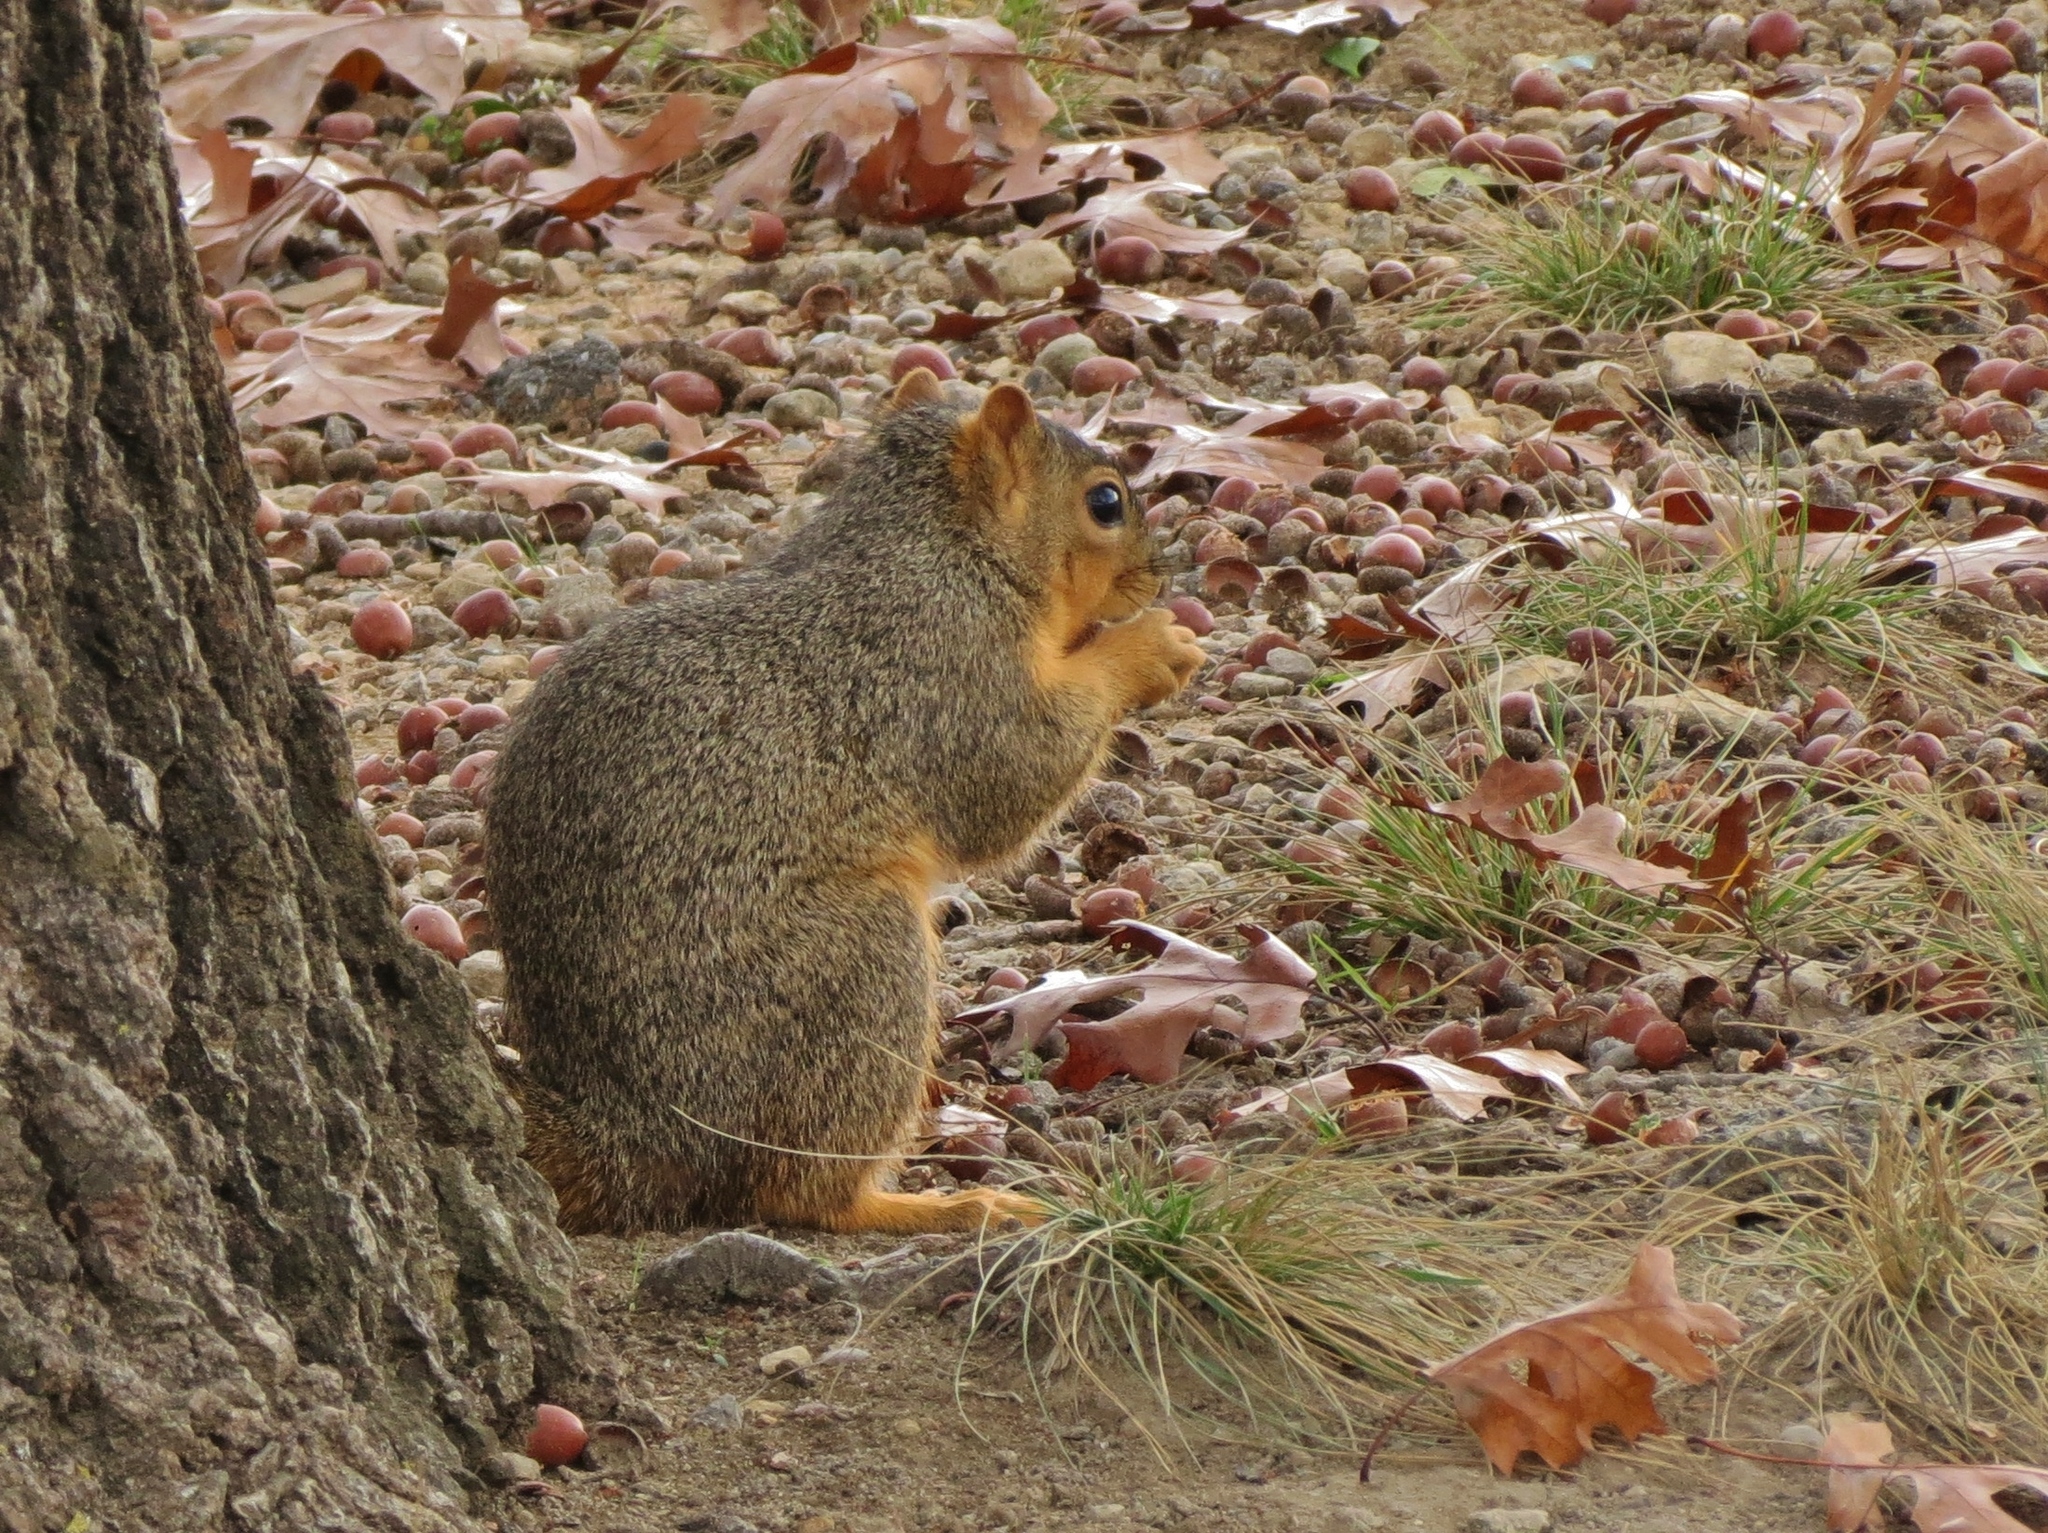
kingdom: Animalia
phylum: Chordata
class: Mammalia
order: Rodentia
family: Sciuridae
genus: Sciurus
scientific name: Sciurus niger
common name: Fox squirrel
